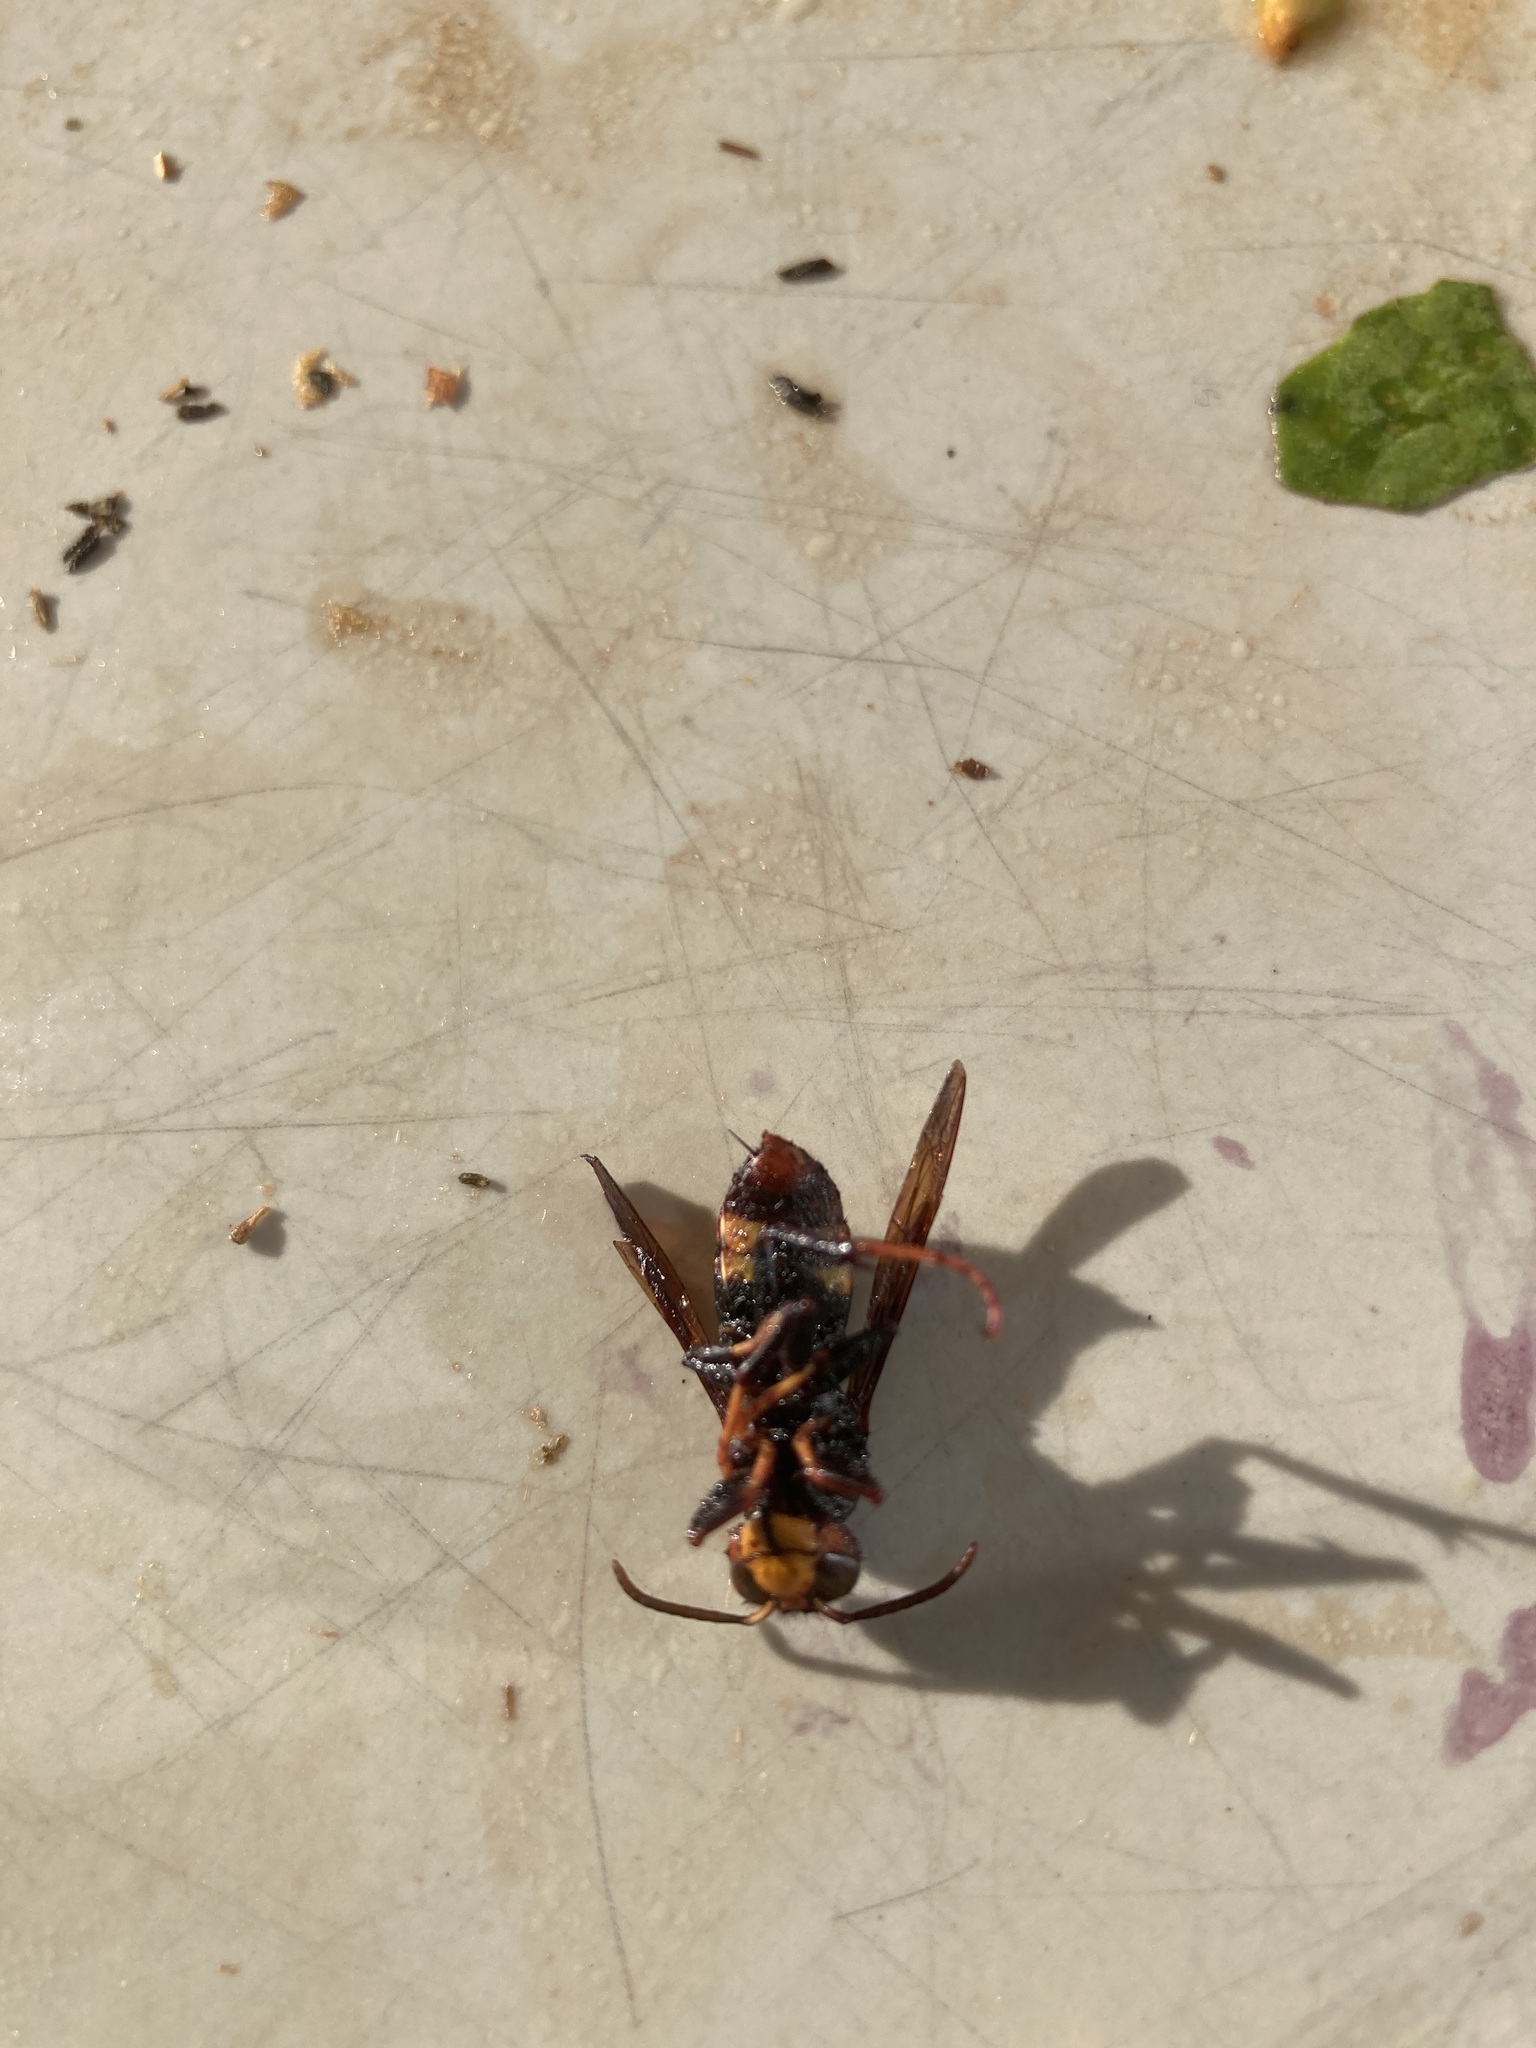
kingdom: Animalia
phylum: Arthropoda
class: Insecta
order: Hymenoptera
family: Vespidae
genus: Vespa
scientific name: Vespa velutina
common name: Asian hornet
